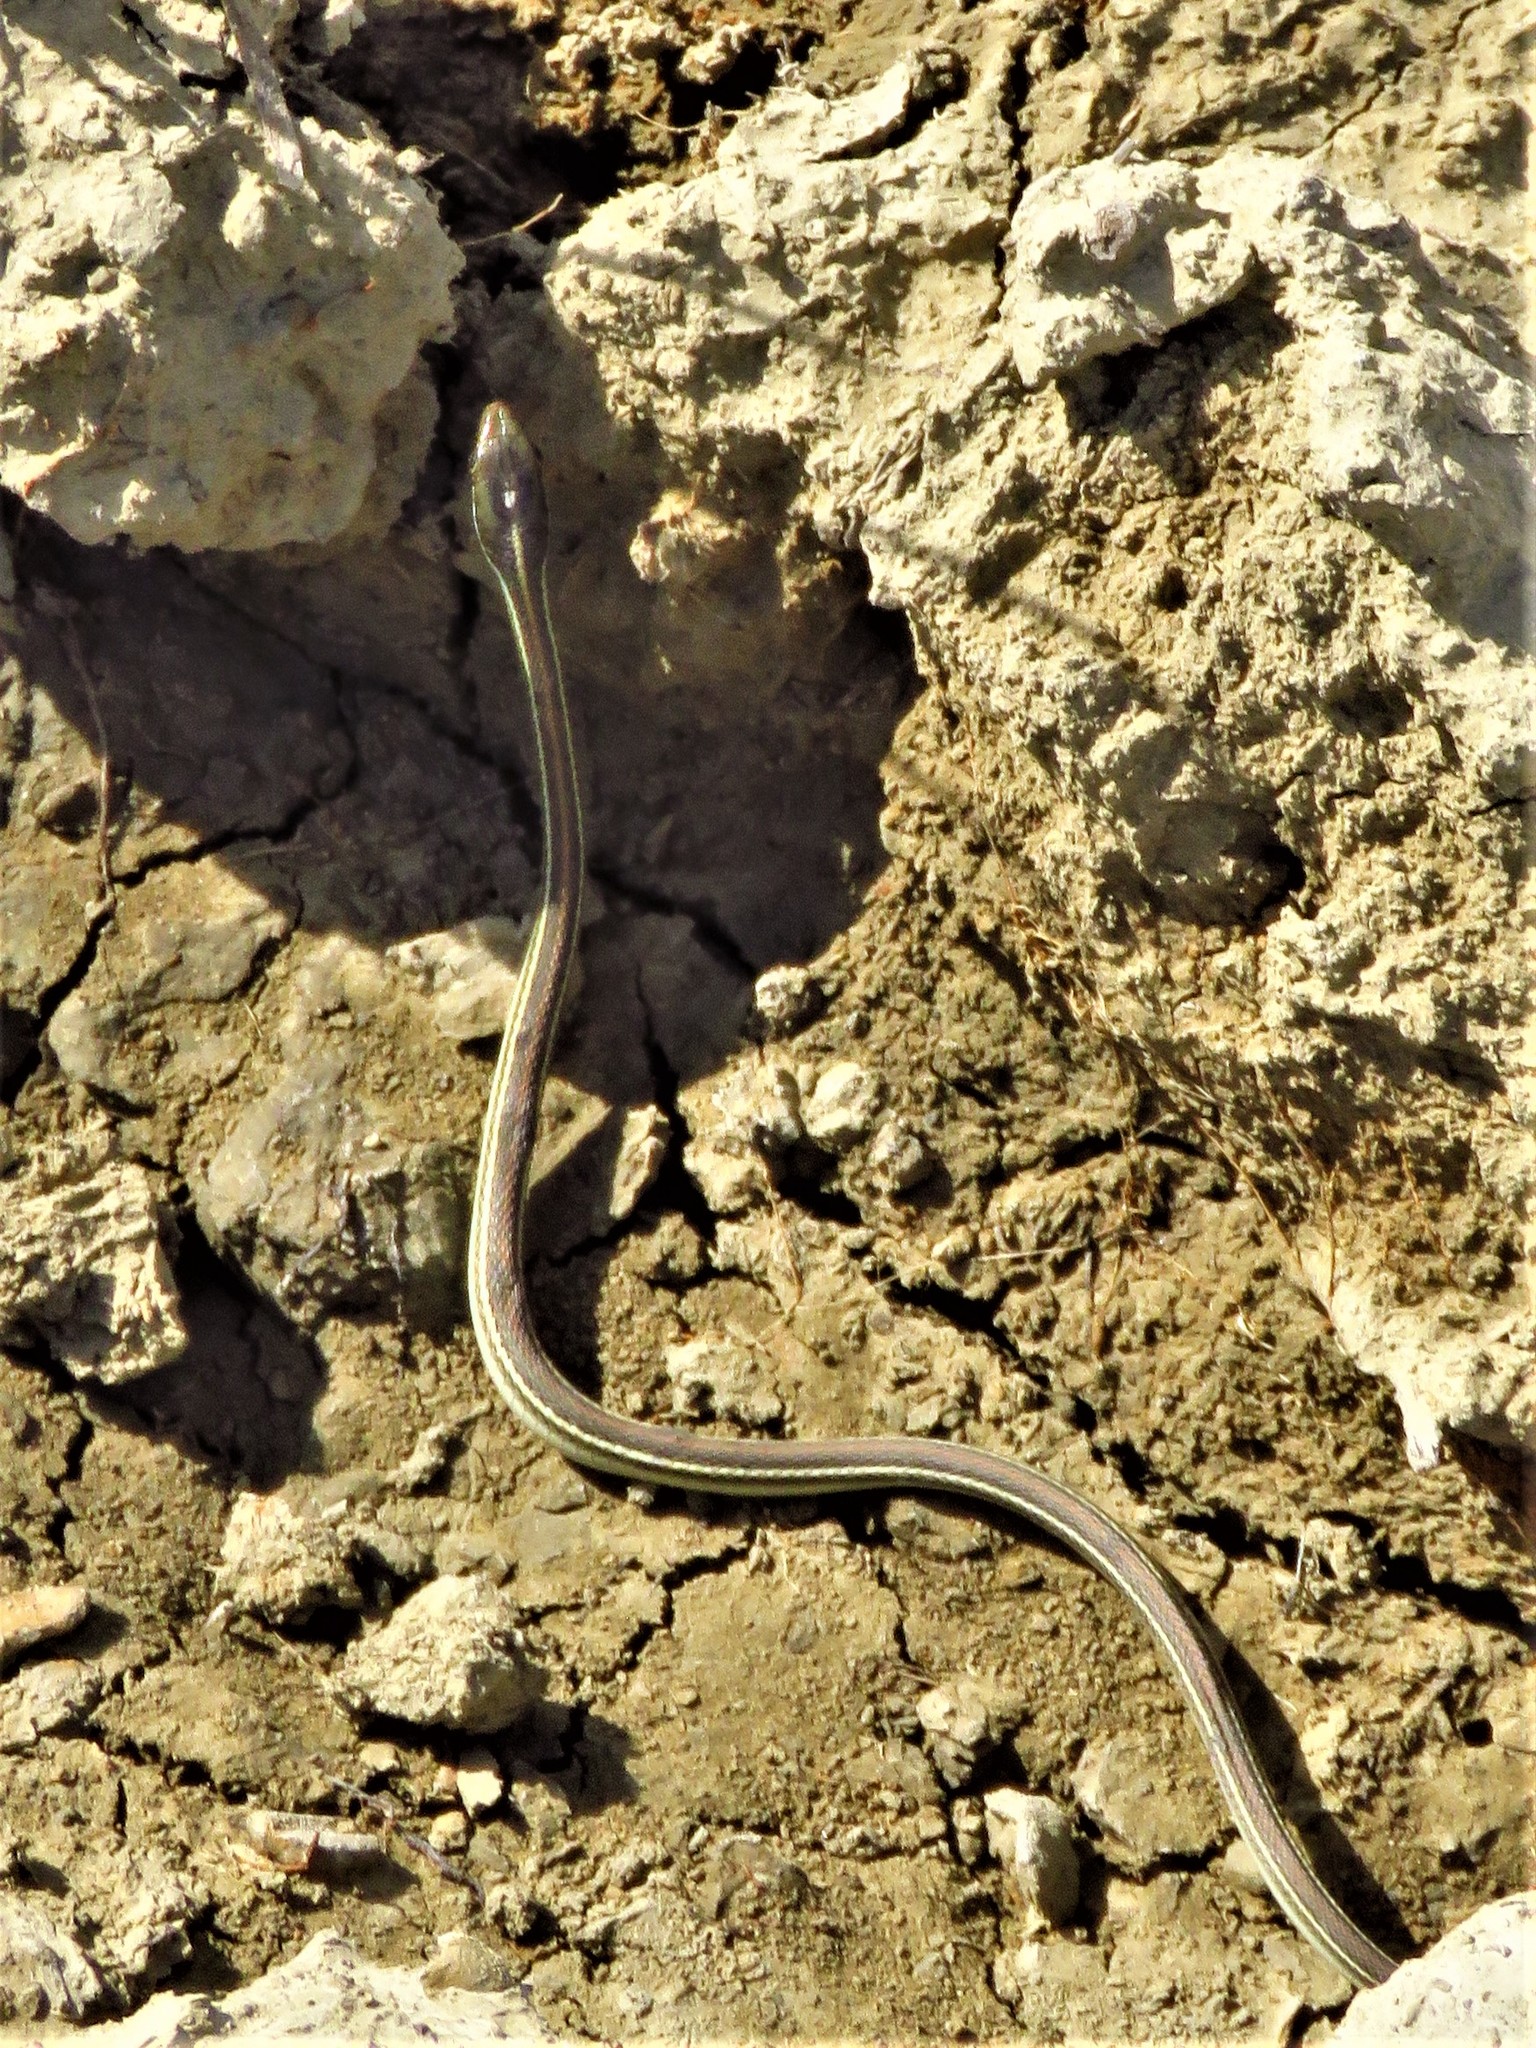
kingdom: Animalia
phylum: Chordata
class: Squamata
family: Colubridae
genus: Thamnophis
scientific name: Thamnophis proximus
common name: Western ribbon snake
